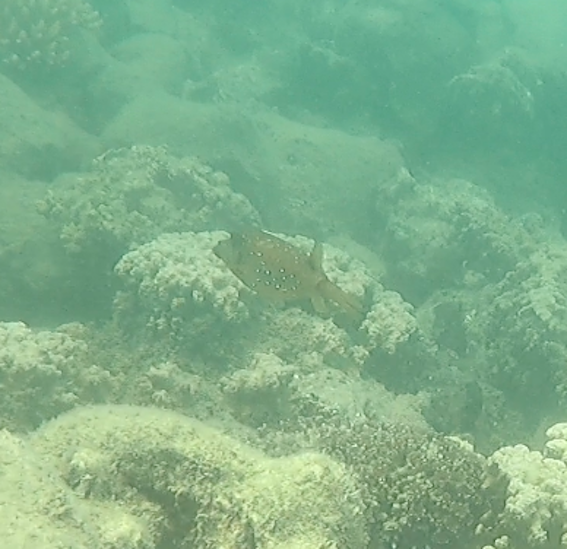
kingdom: Animalia
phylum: Chordata
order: Tetraodontiformes
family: Ostraciidae
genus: Ostracion
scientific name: Ostracion cubicus
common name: Cube trunkfish
